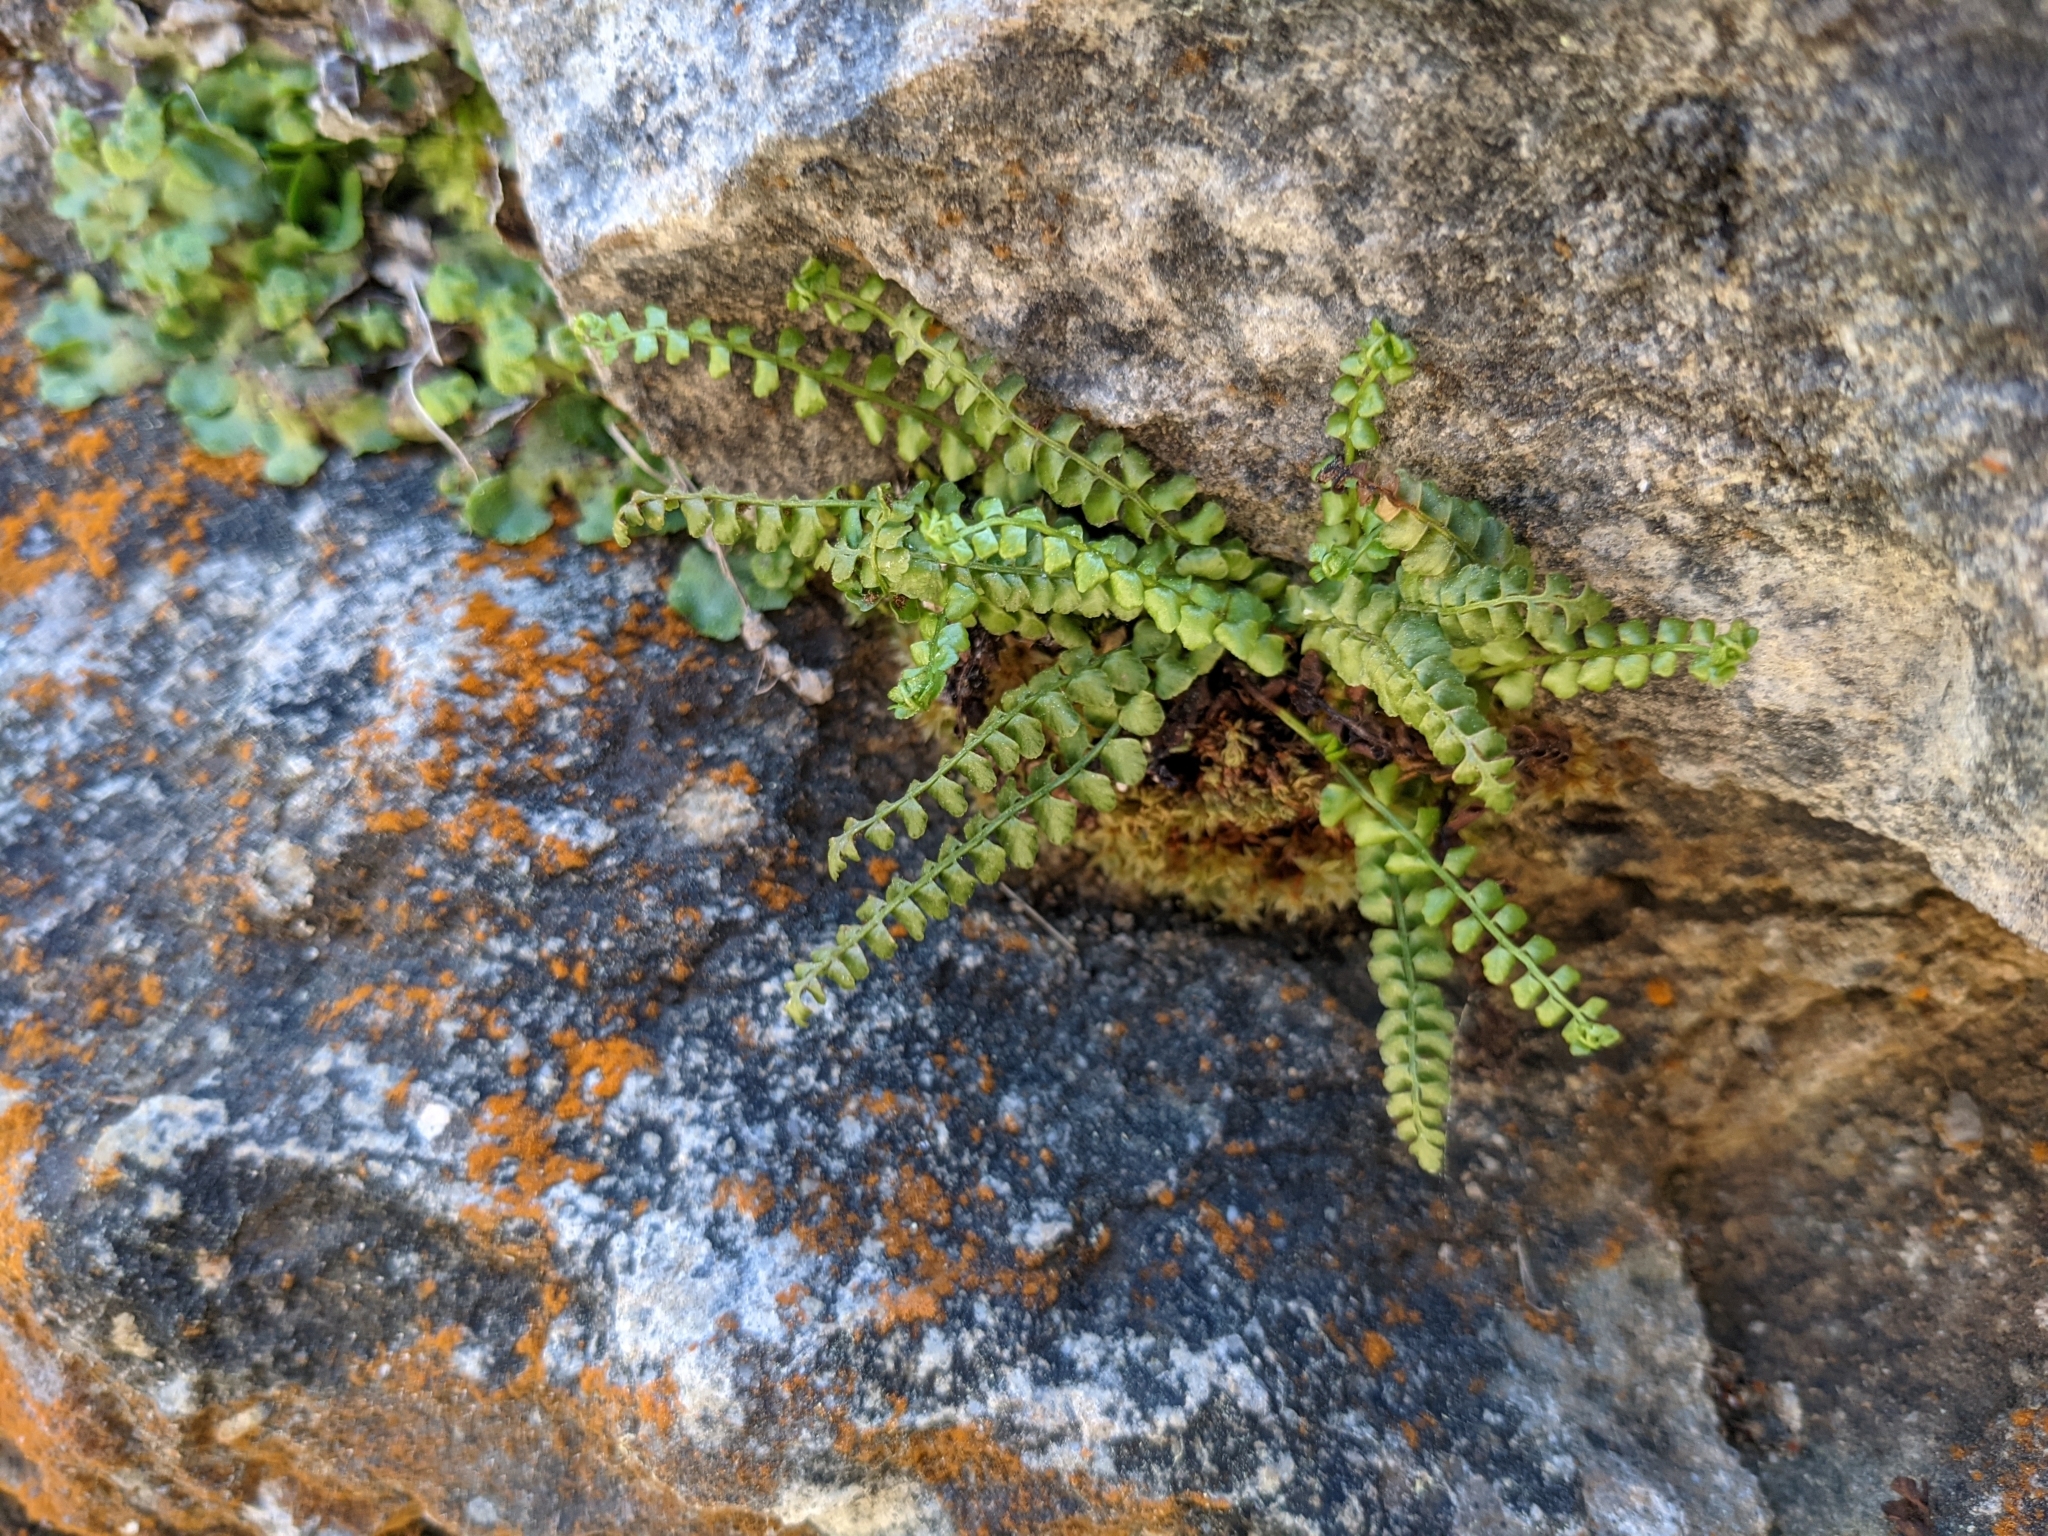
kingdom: Plantae
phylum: Tracheophyta
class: Polypodiopsida
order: Polypodiales
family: Aspleniaceae
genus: Asplenium
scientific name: Asplenium viride
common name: Green spleenwort
